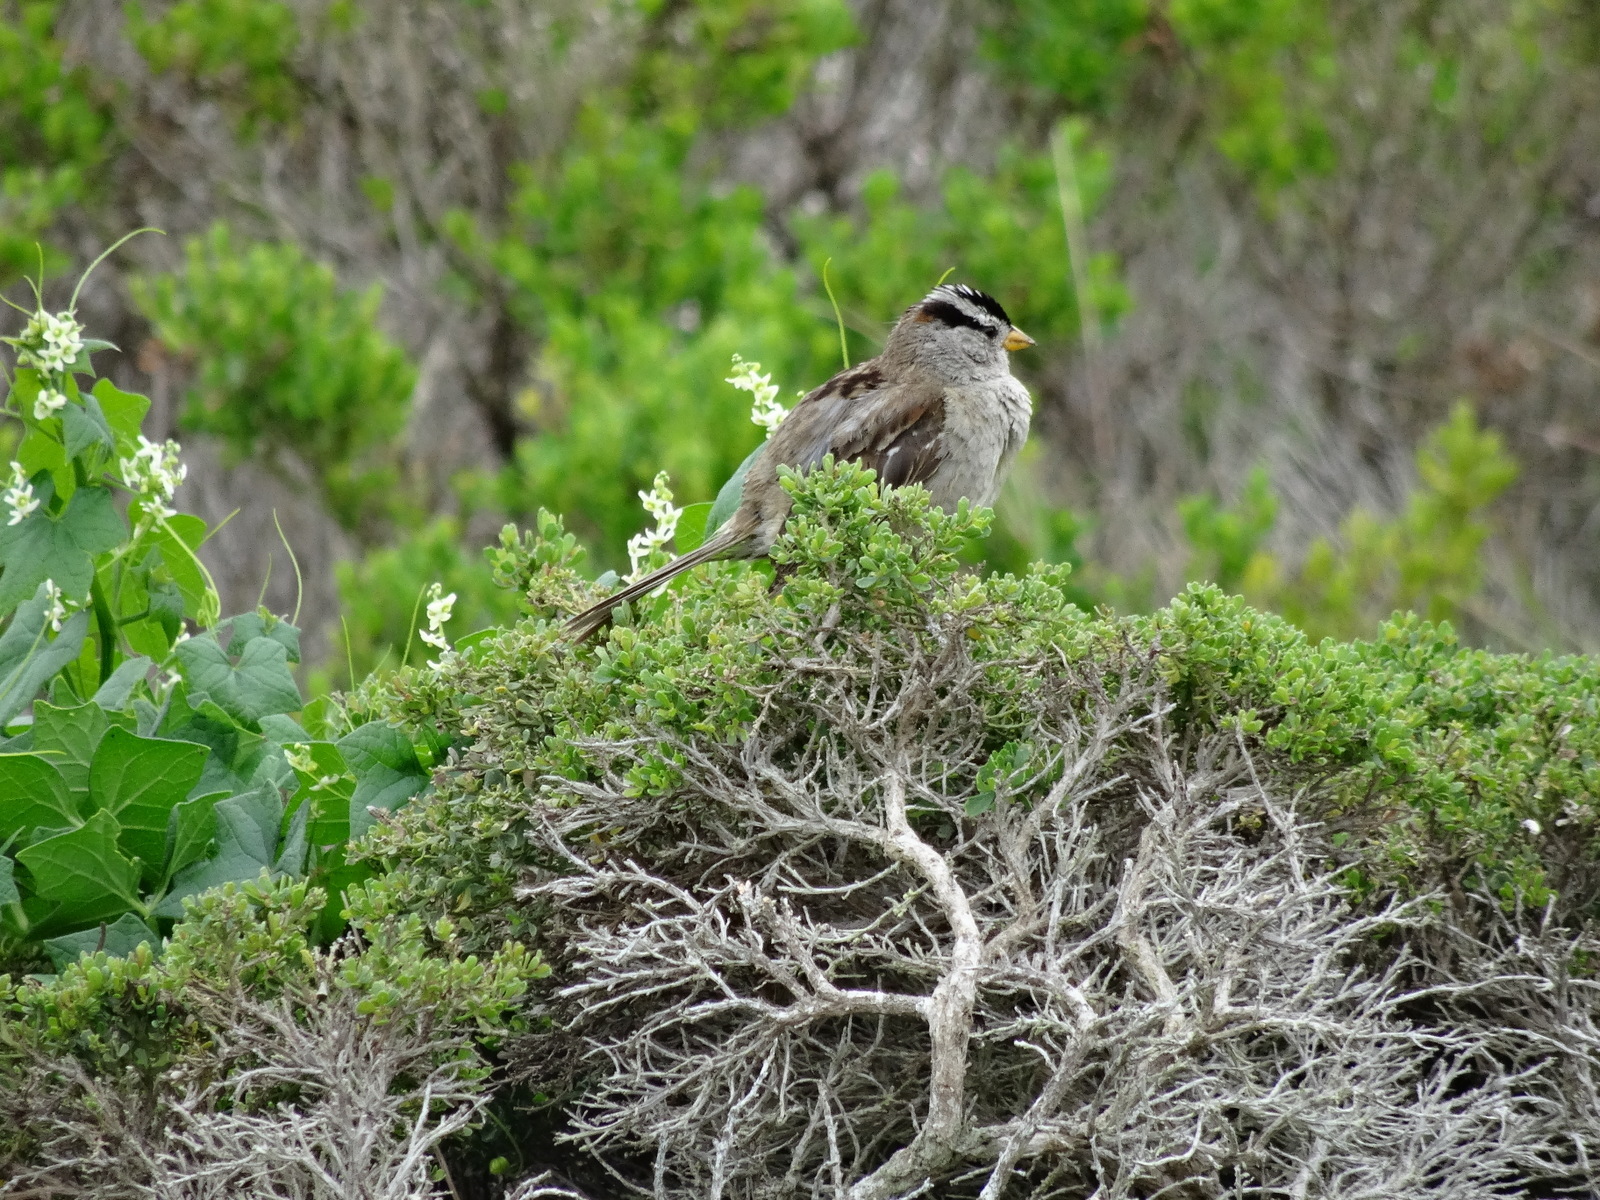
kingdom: Animalia
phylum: Chordata
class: Aves
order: Passeriformes
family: Passerellidae
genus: Zonotrichia
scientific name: Zonotrichia leucophrys
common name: White-crowned sparrow
